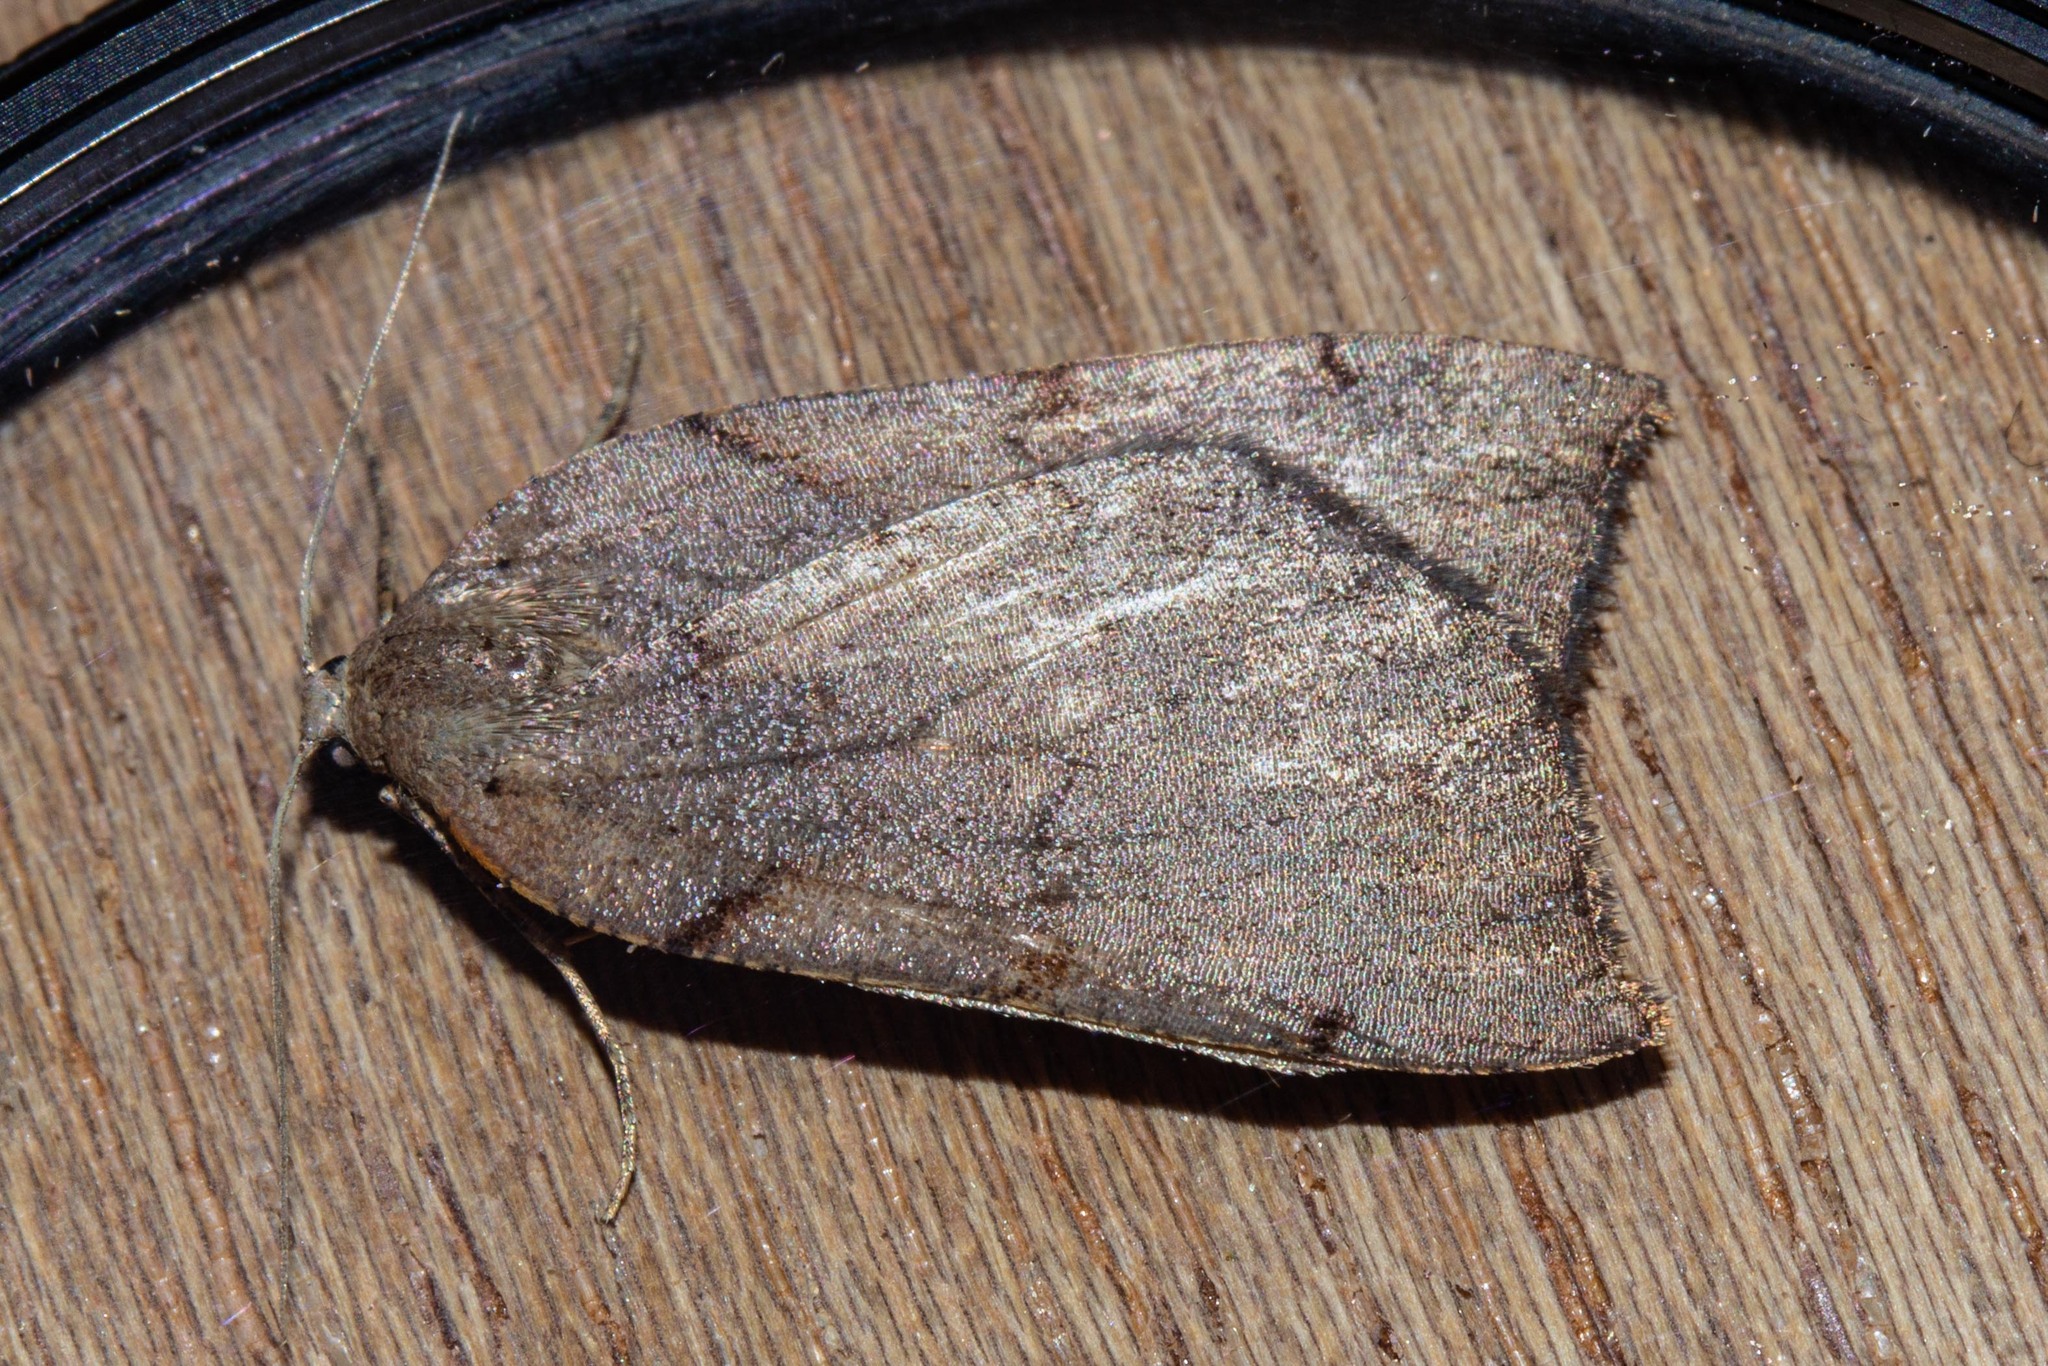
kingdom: Animalia
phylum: Arthropoda
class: Insecta
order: Lepidoptera
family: Geometridae
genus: Sestra
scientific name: Sestra humeraria
